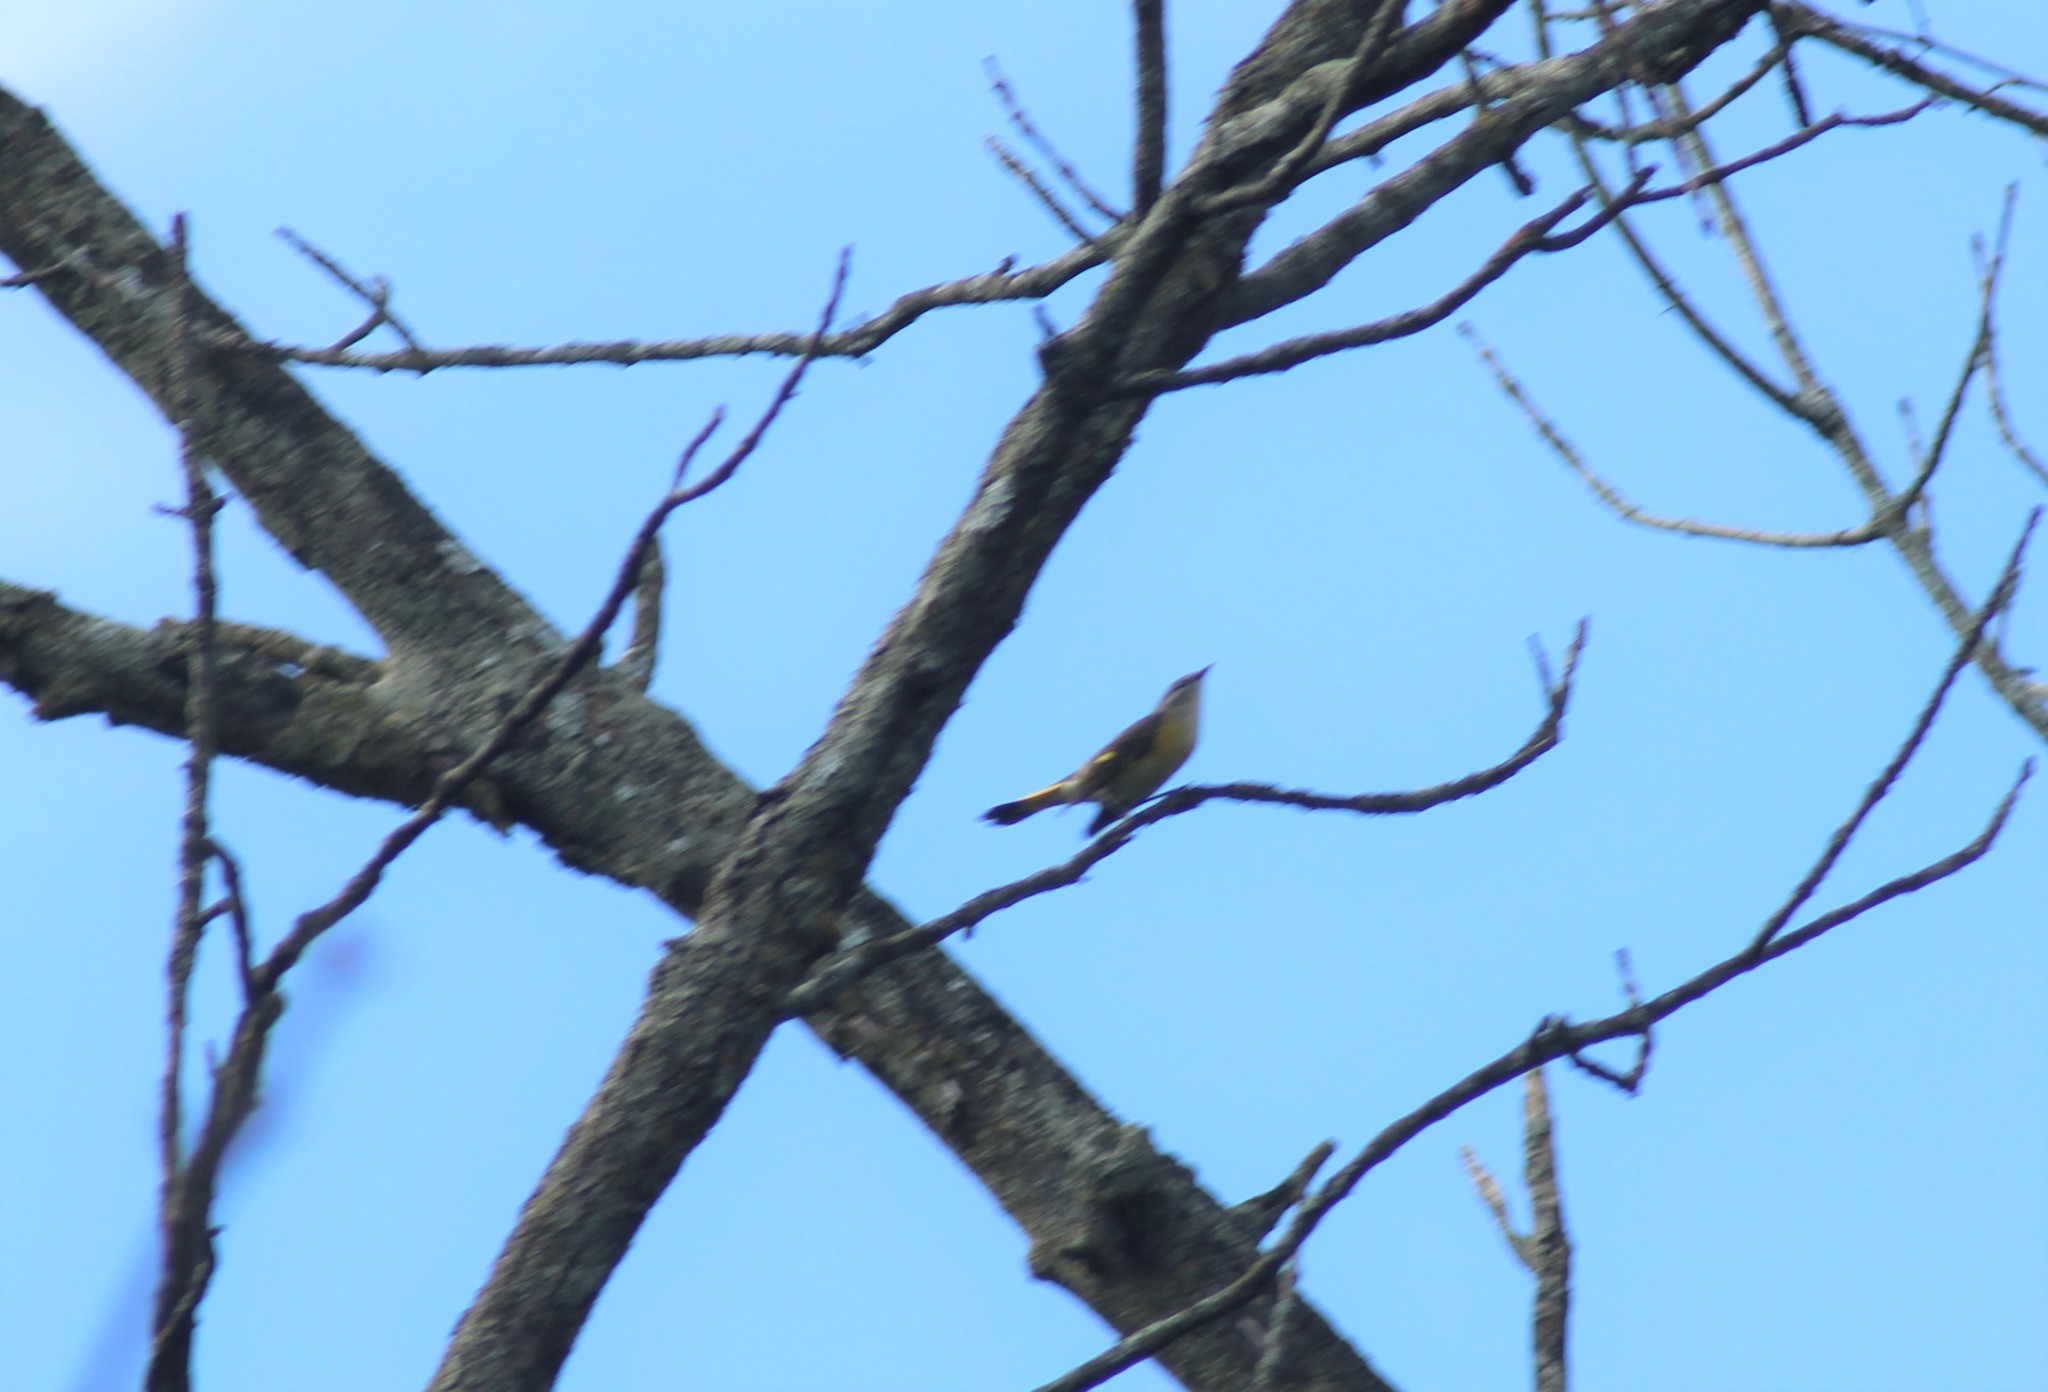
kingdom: Animalia
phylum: Chordata
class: Aves
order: Passeriformes
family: Parulidae
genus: Setophaga
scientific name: Setophaga ruticilla
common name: American redstart
